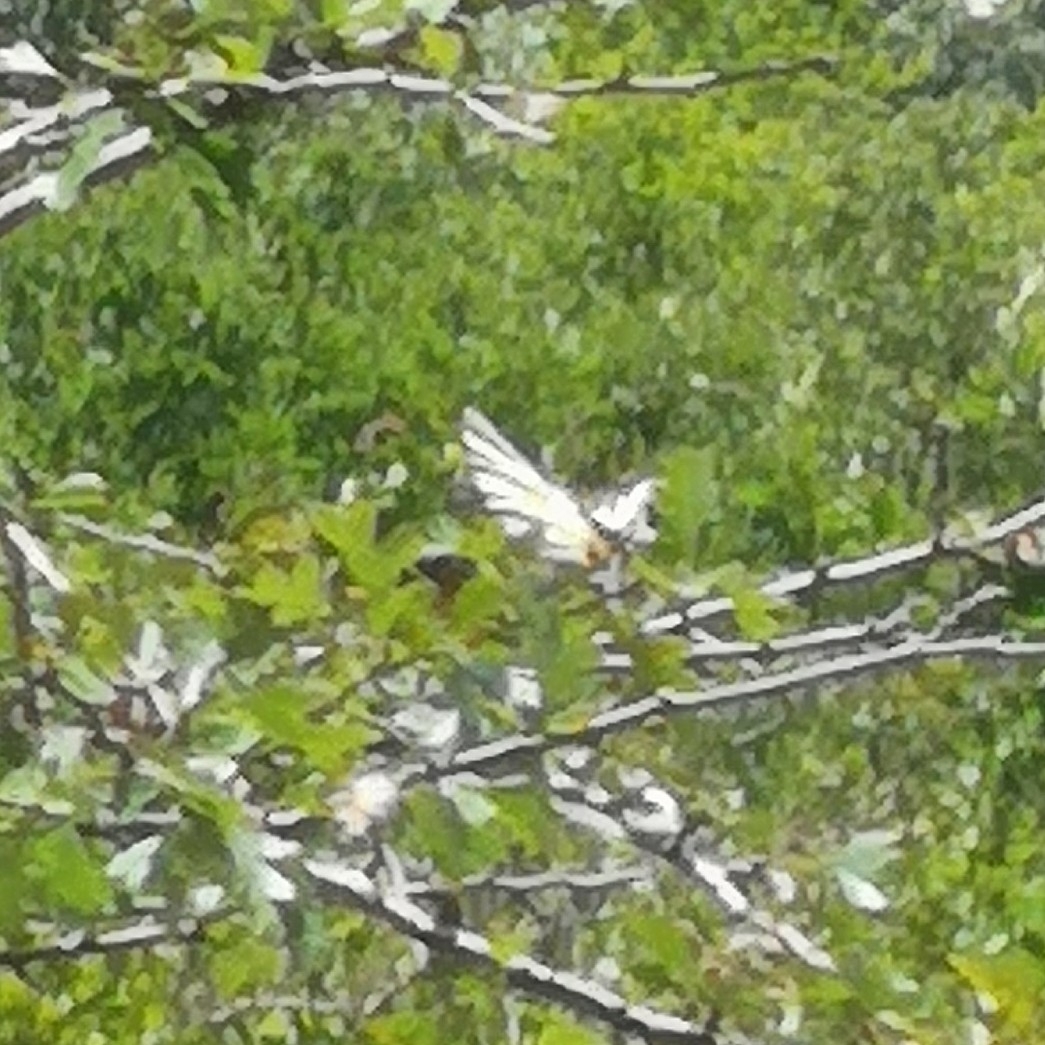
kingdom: Animalia
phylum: Arthropoda
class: Insecta
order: Lepidoptera
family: Papilionidae
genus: Iphiclides
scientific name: Iphiclides podalirius
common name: Scarce swallowtail
